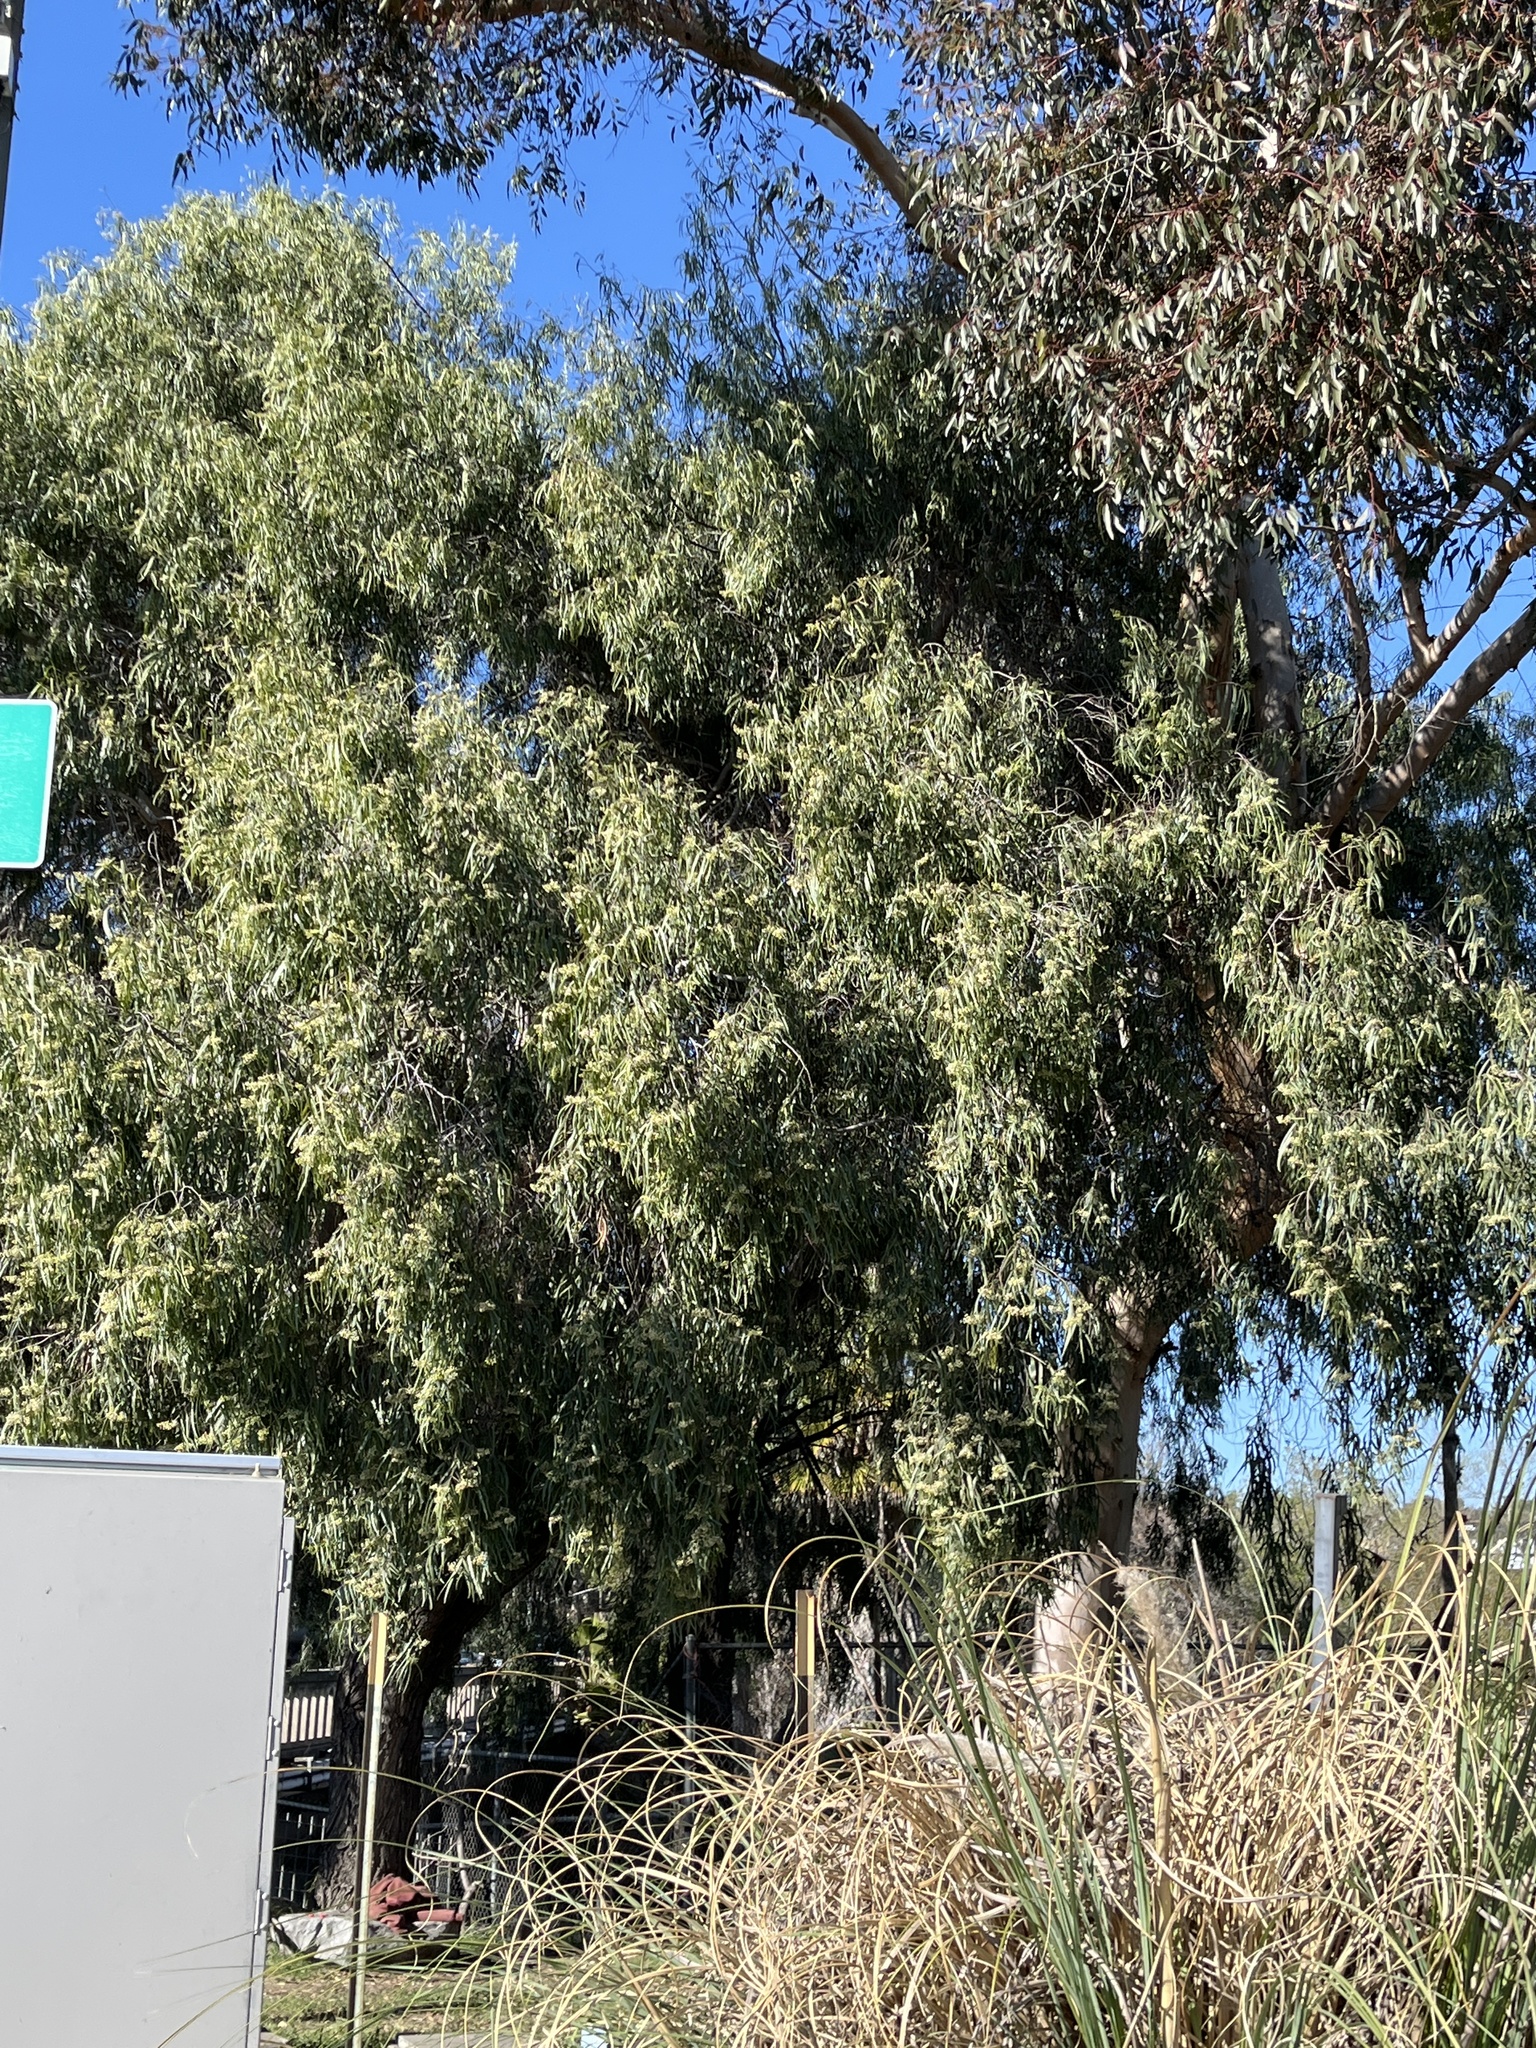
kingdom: Plantae
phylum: Tracheophyta
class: Magnoliopsida
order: Myrtales
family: Myrtaceae
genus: Eucalyptus
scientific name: Eucalyptus camaldulensis
